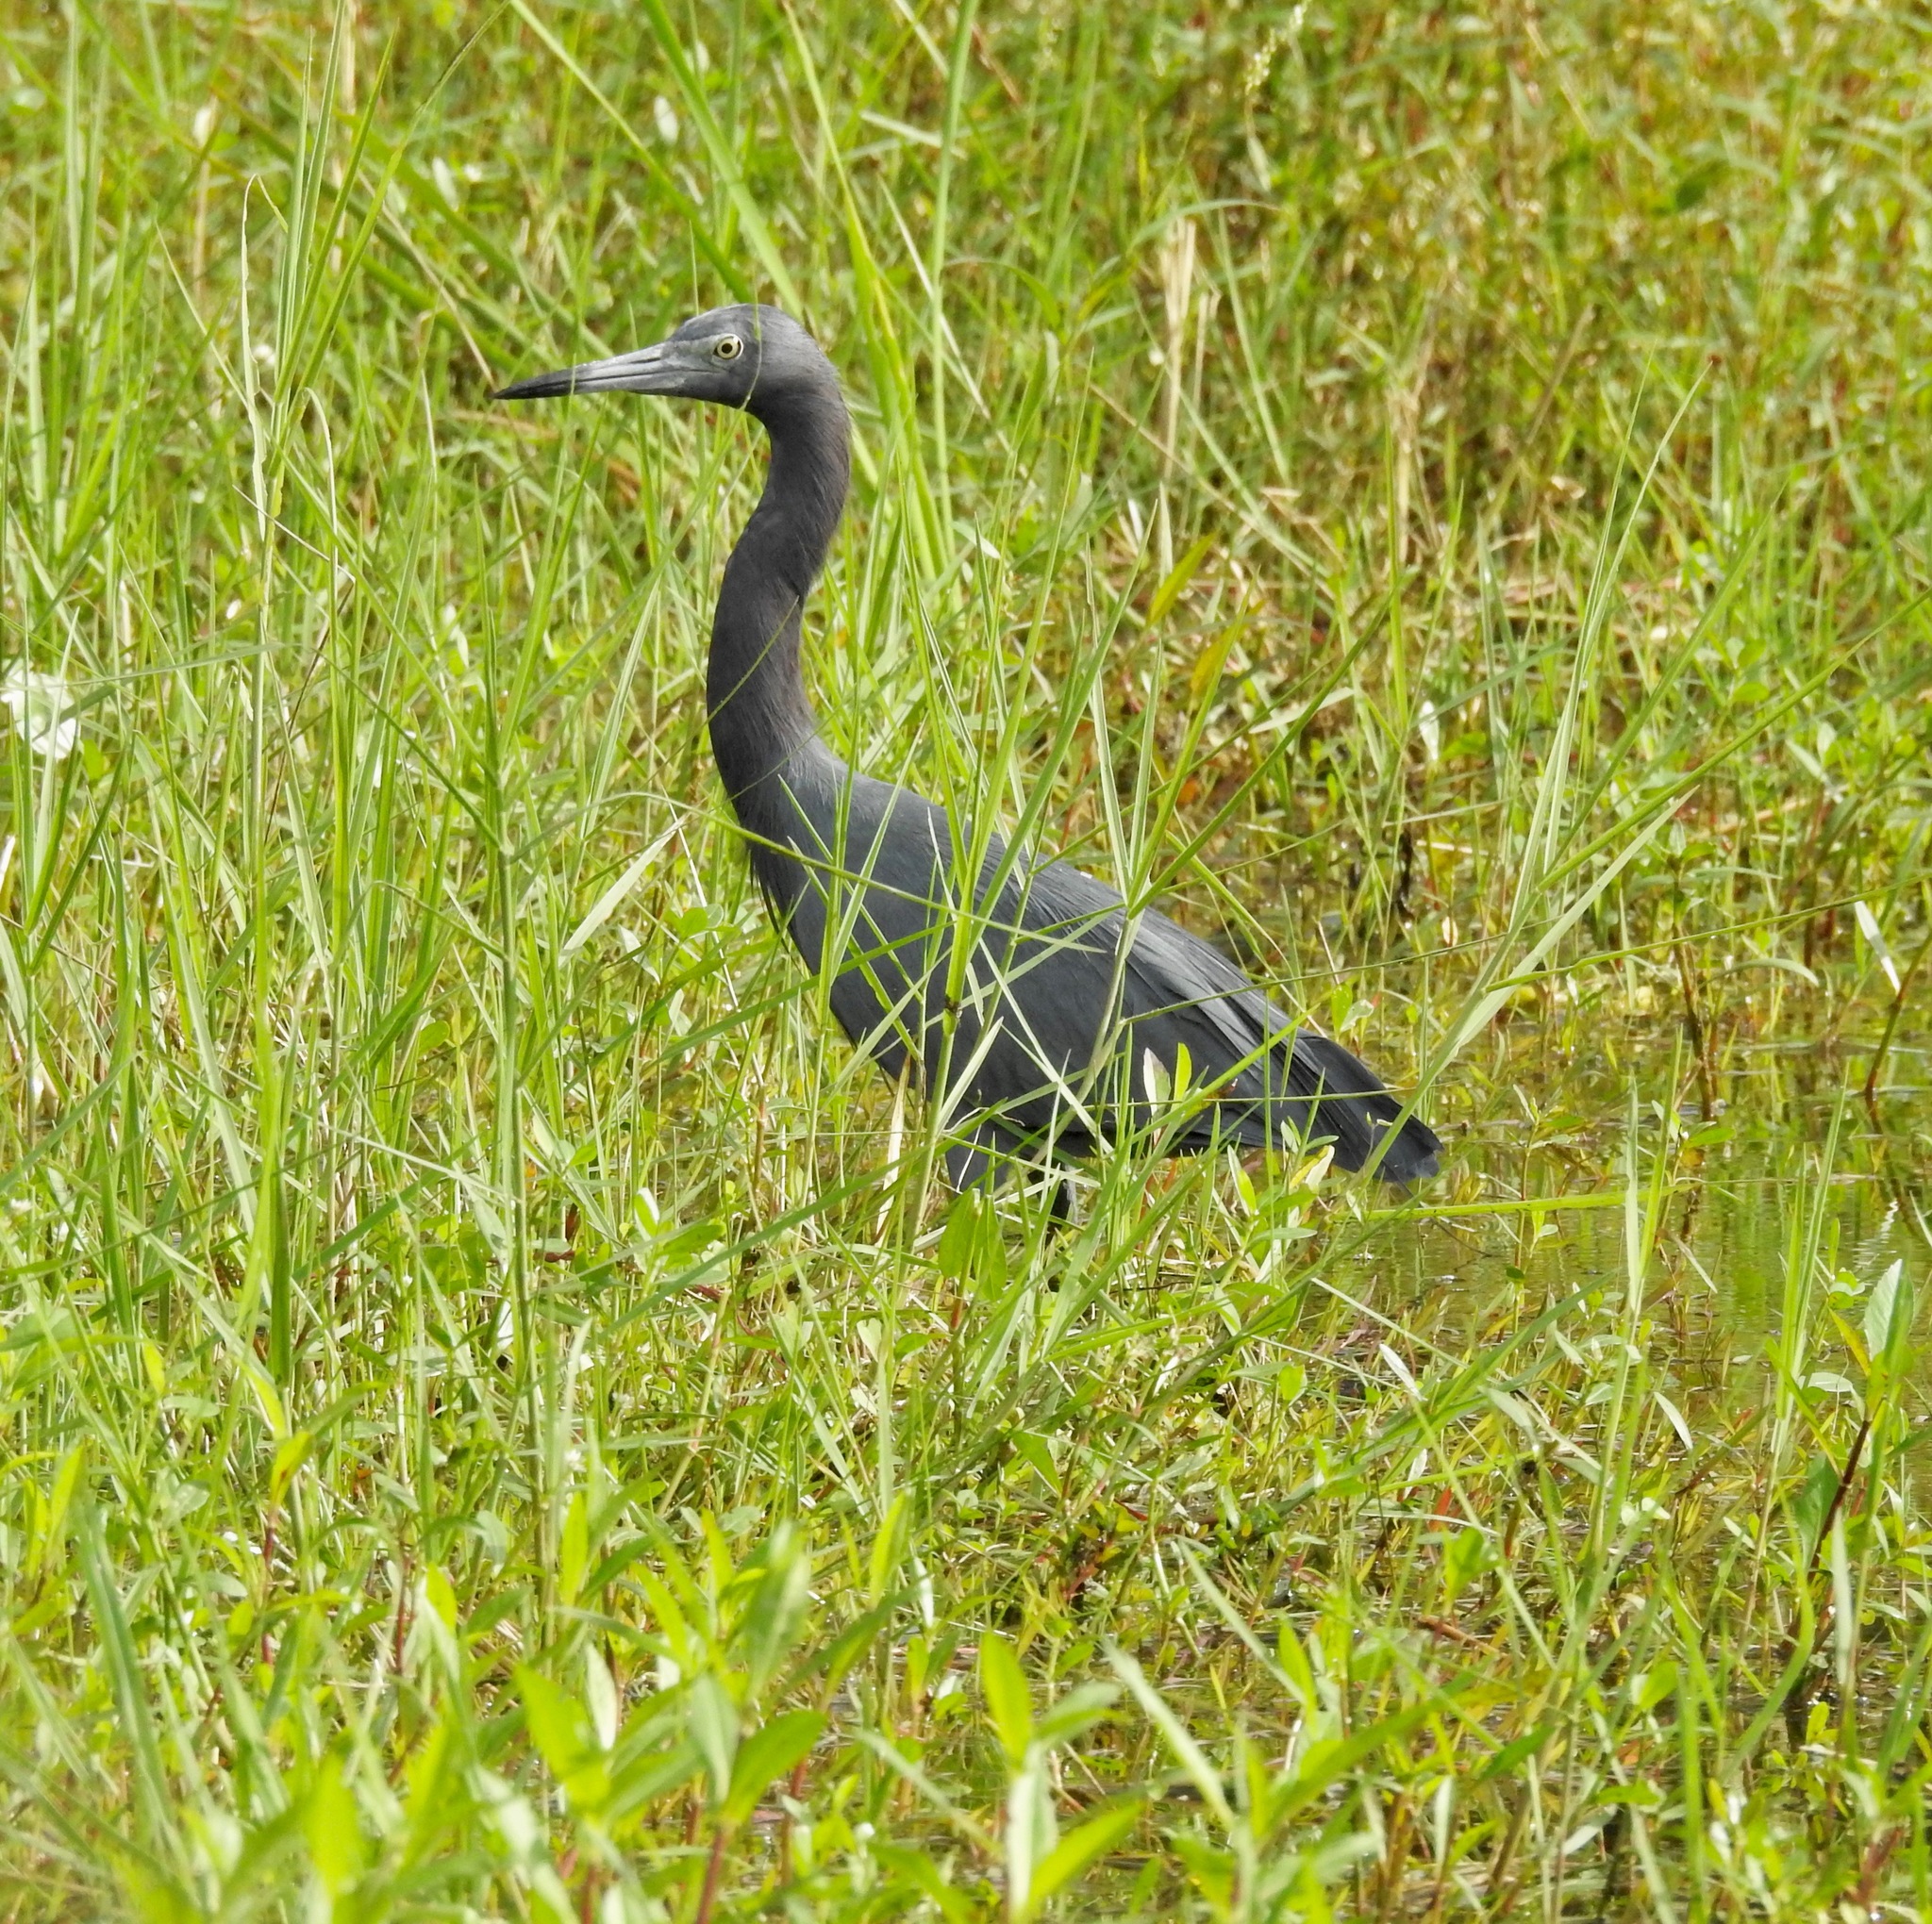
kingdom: Animalia
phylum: Chordata
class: Aves
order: Pelecaniformes
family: Ardeidae
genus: Egretta
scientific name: Egretta caerulea
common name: Little blue heron
